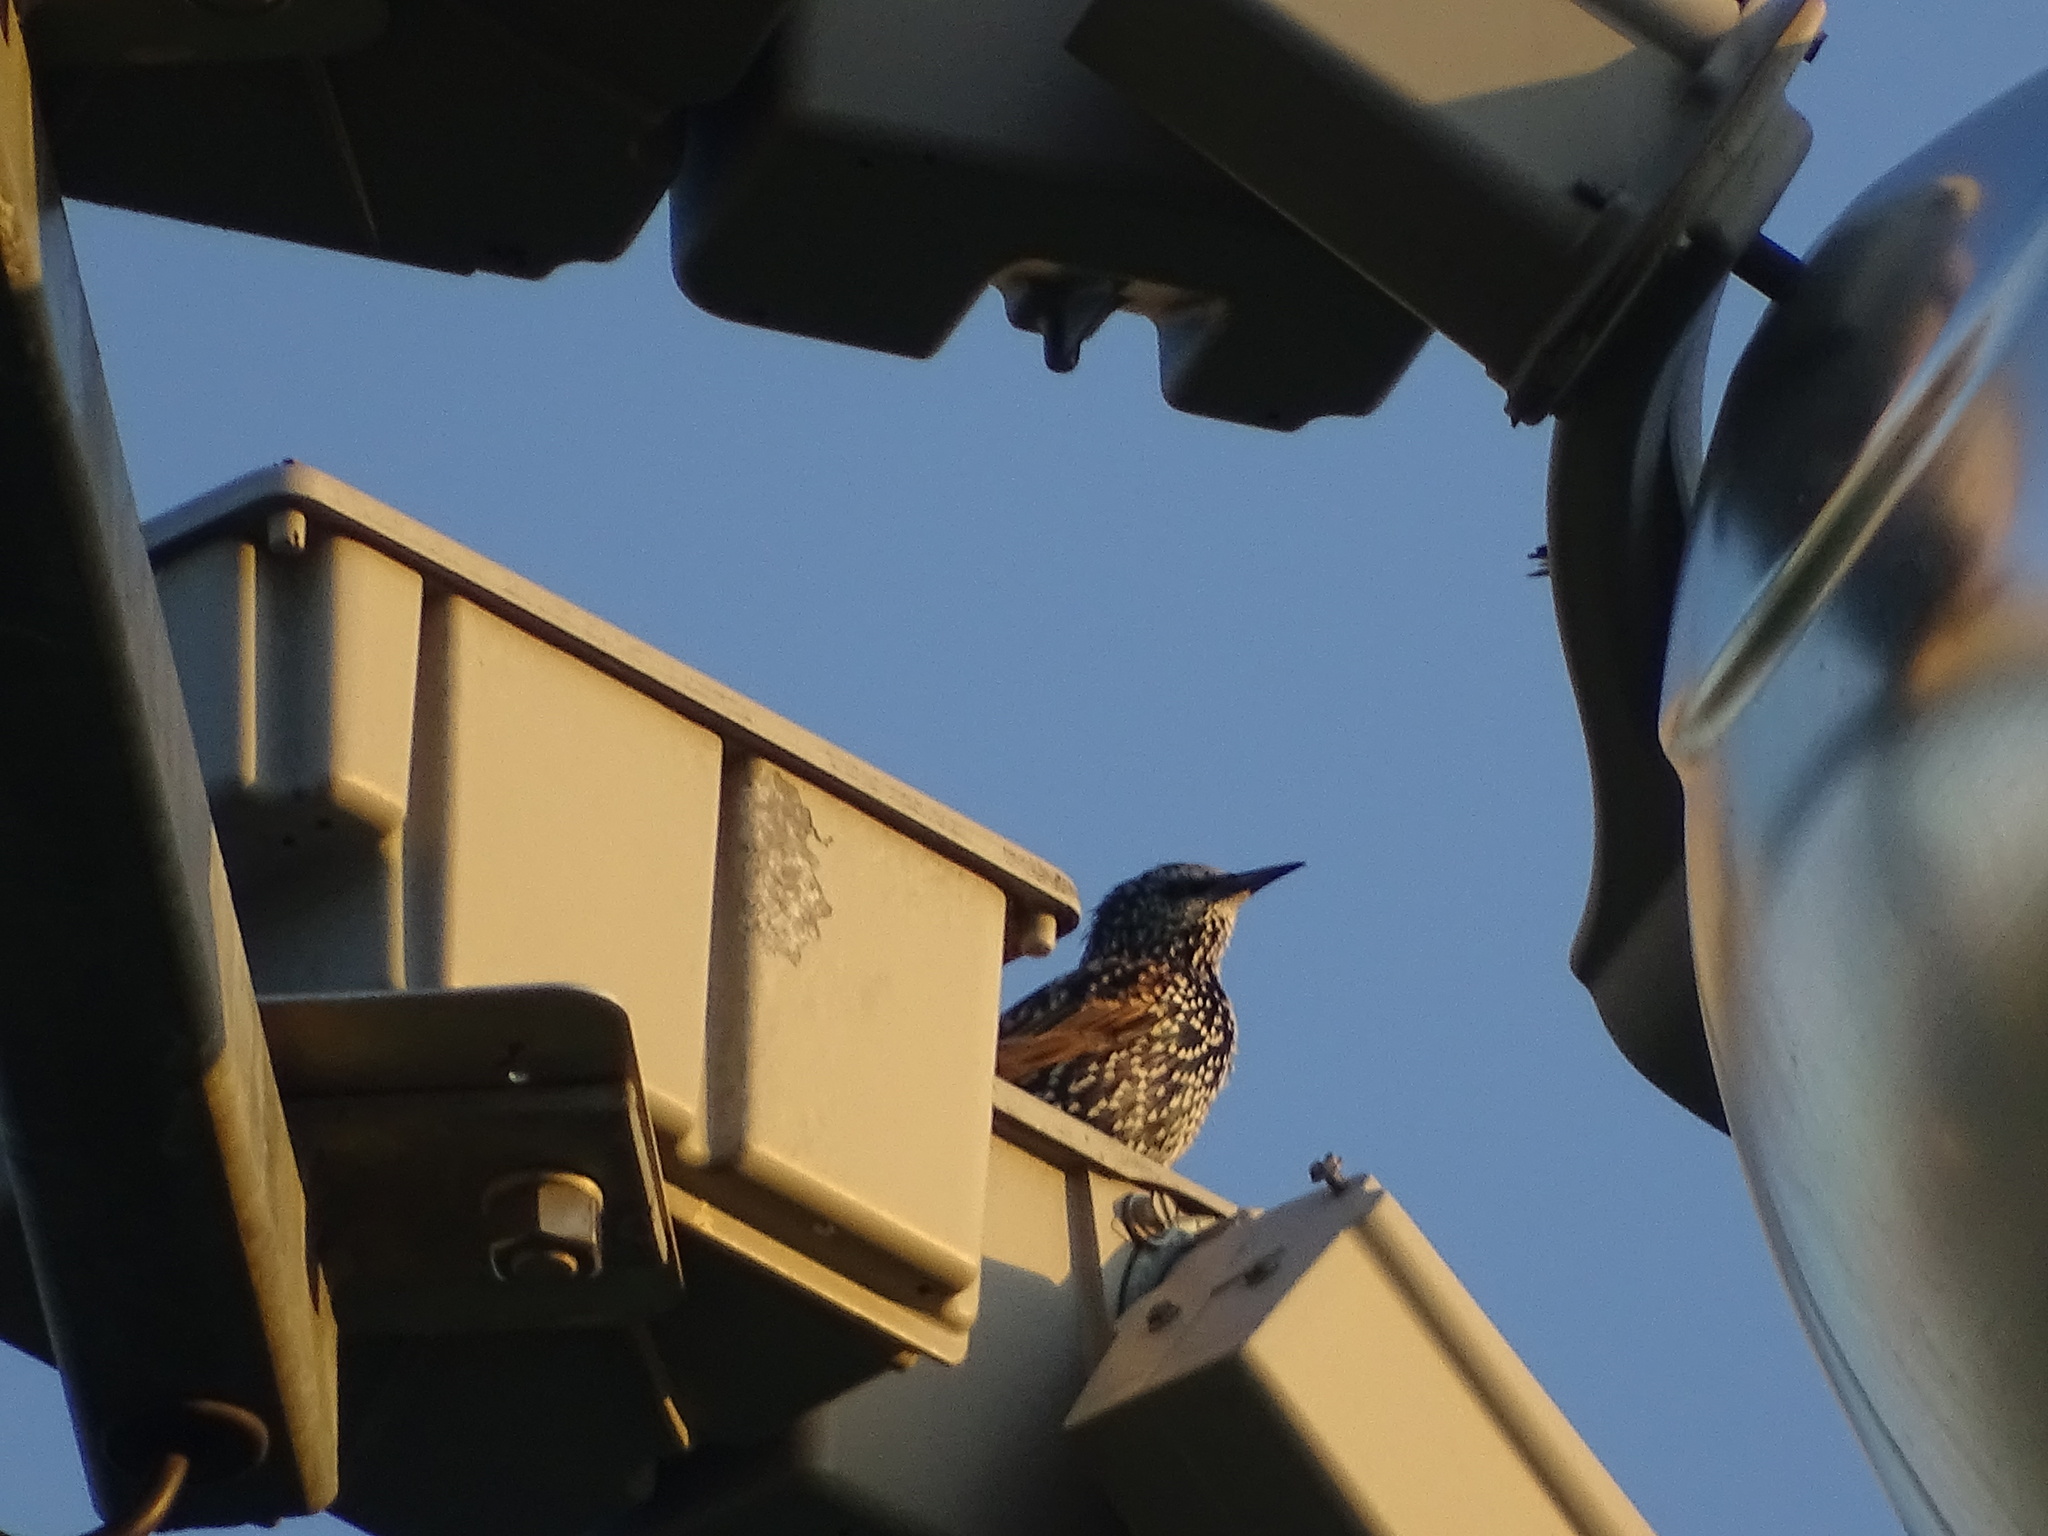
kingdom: Animalia
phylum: Chordata
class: Aves
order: Passeriformes
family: Sturnidae
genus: Sturnus
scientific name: Sturnus vulgaris
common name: Common starling
